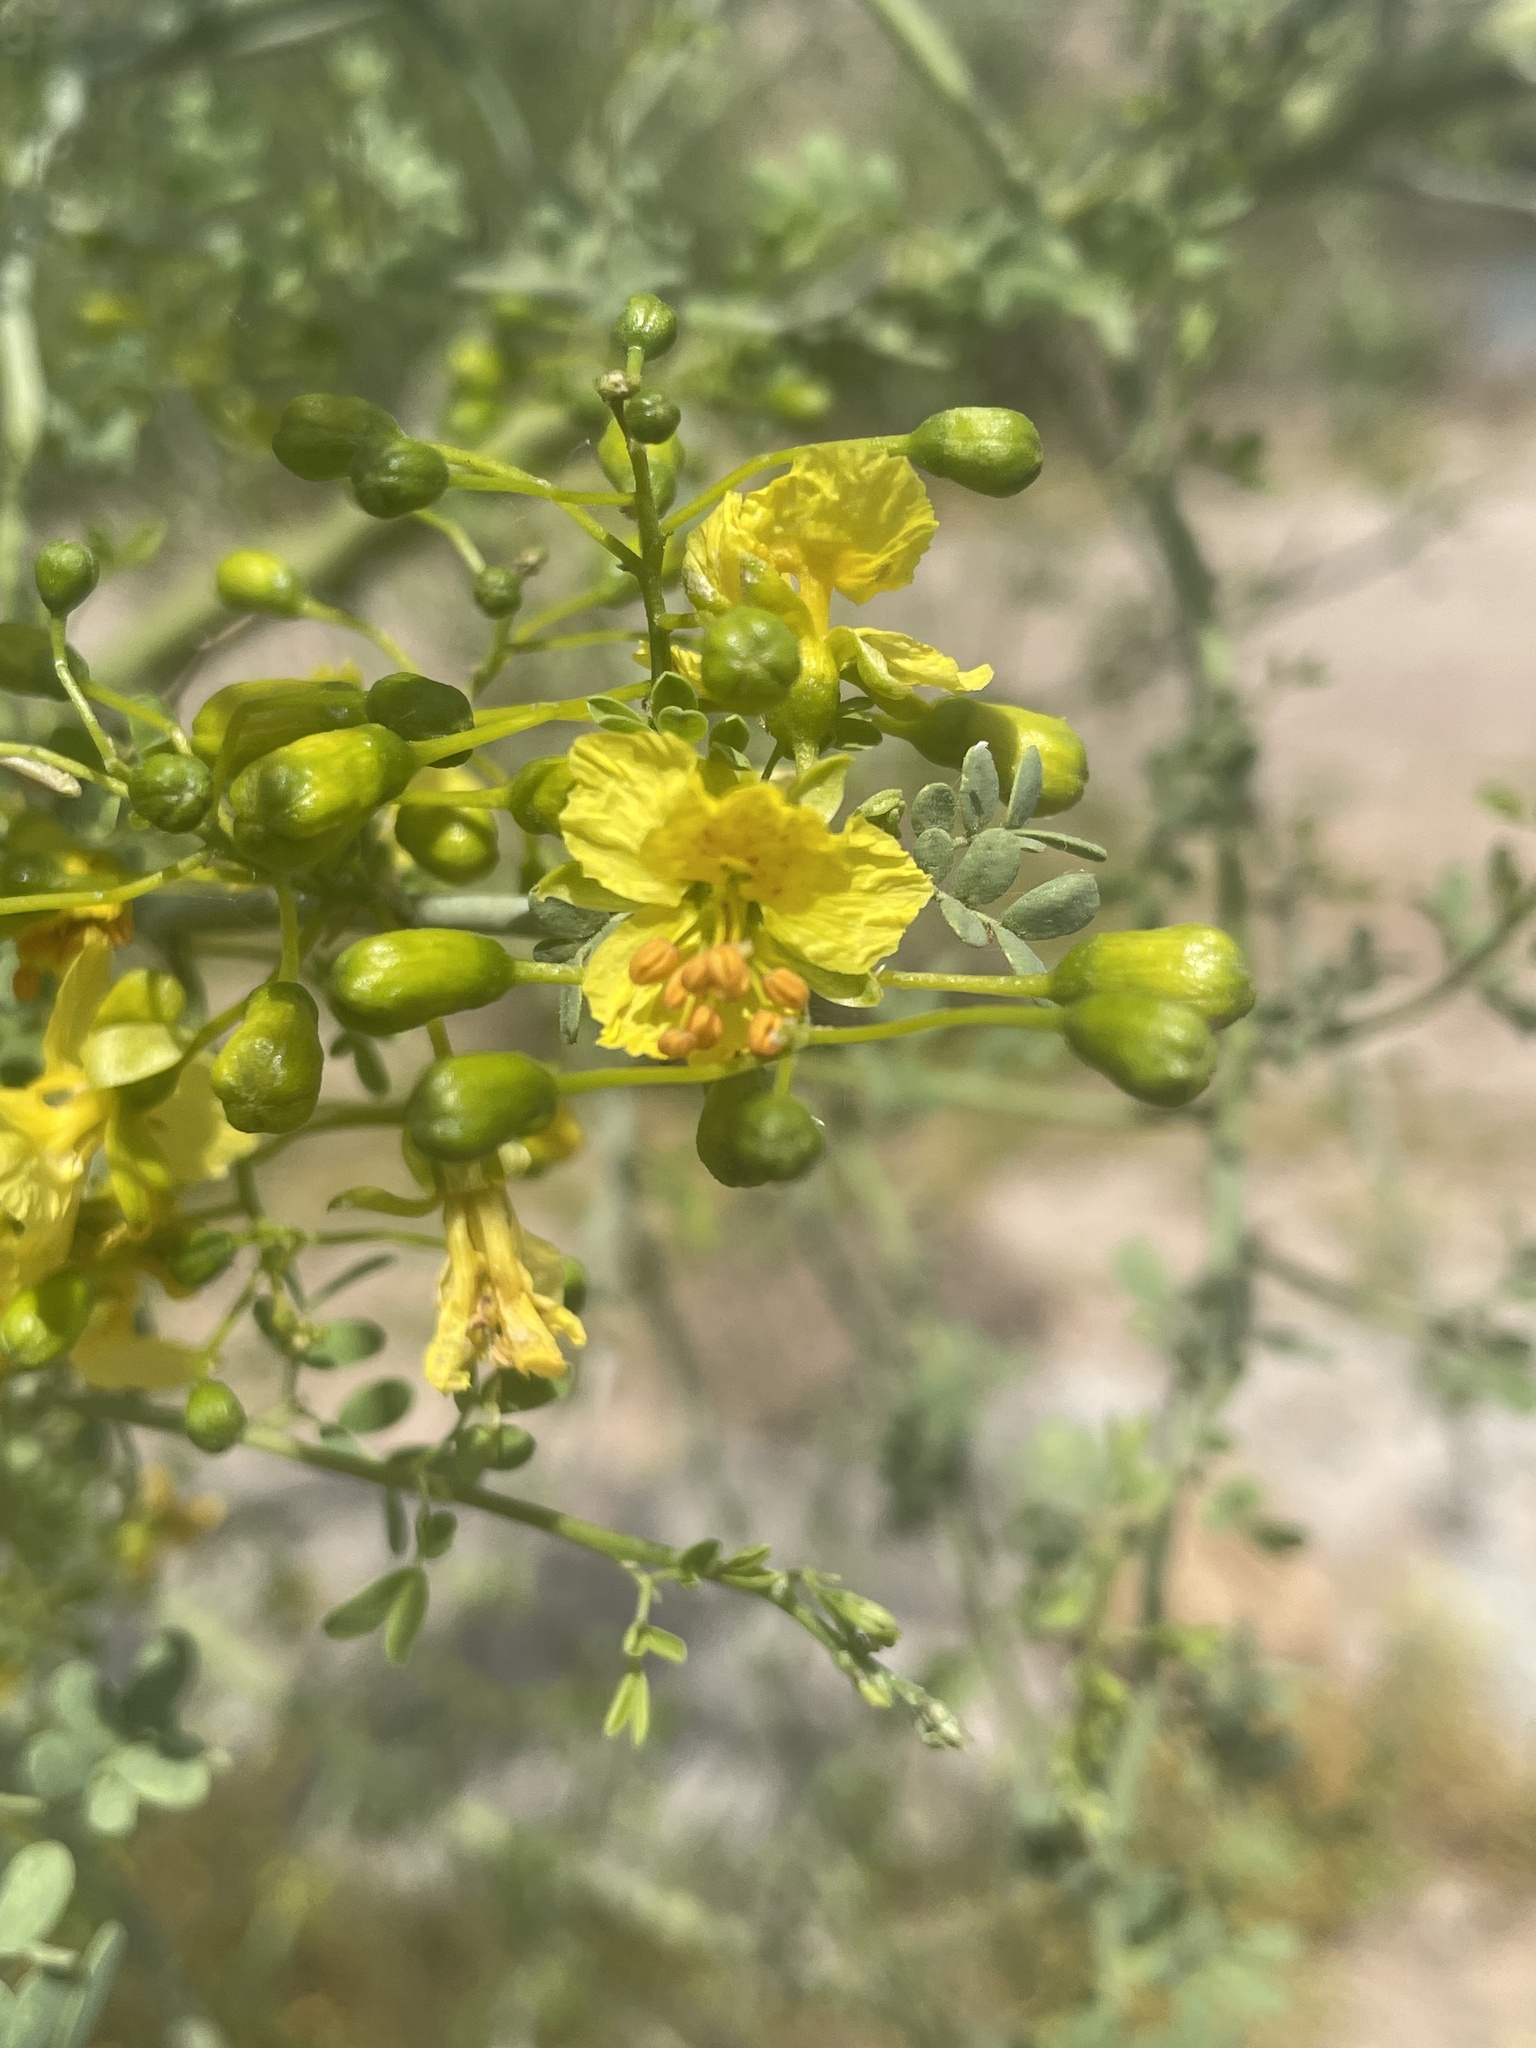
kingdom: Plantae
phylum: Tracheophyta
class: Magnoliopsida
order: Fabales
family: Fabaceae
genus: Parkinsonia
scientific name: Parkinsonia florida
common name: Blue paloverde
